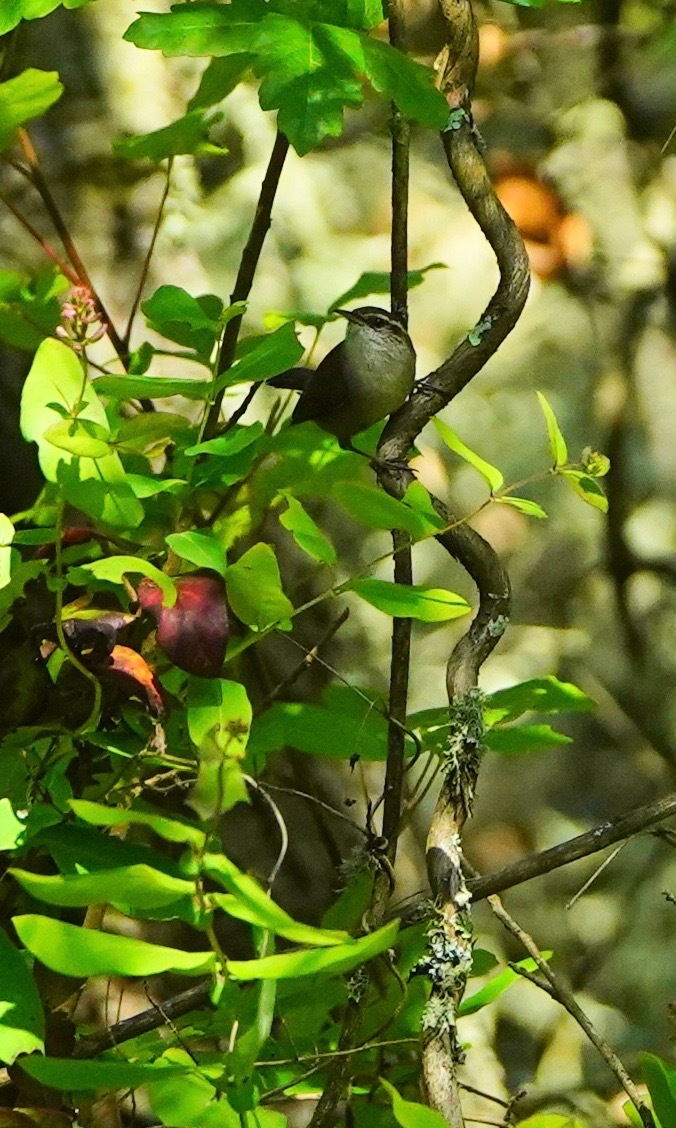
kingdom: Animalia
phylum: Chordata
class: Aves
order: Passeriformes
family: Troglodytidae
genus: Thryomanes
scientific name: Thryomanes bewickii
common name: Bewick's wren
